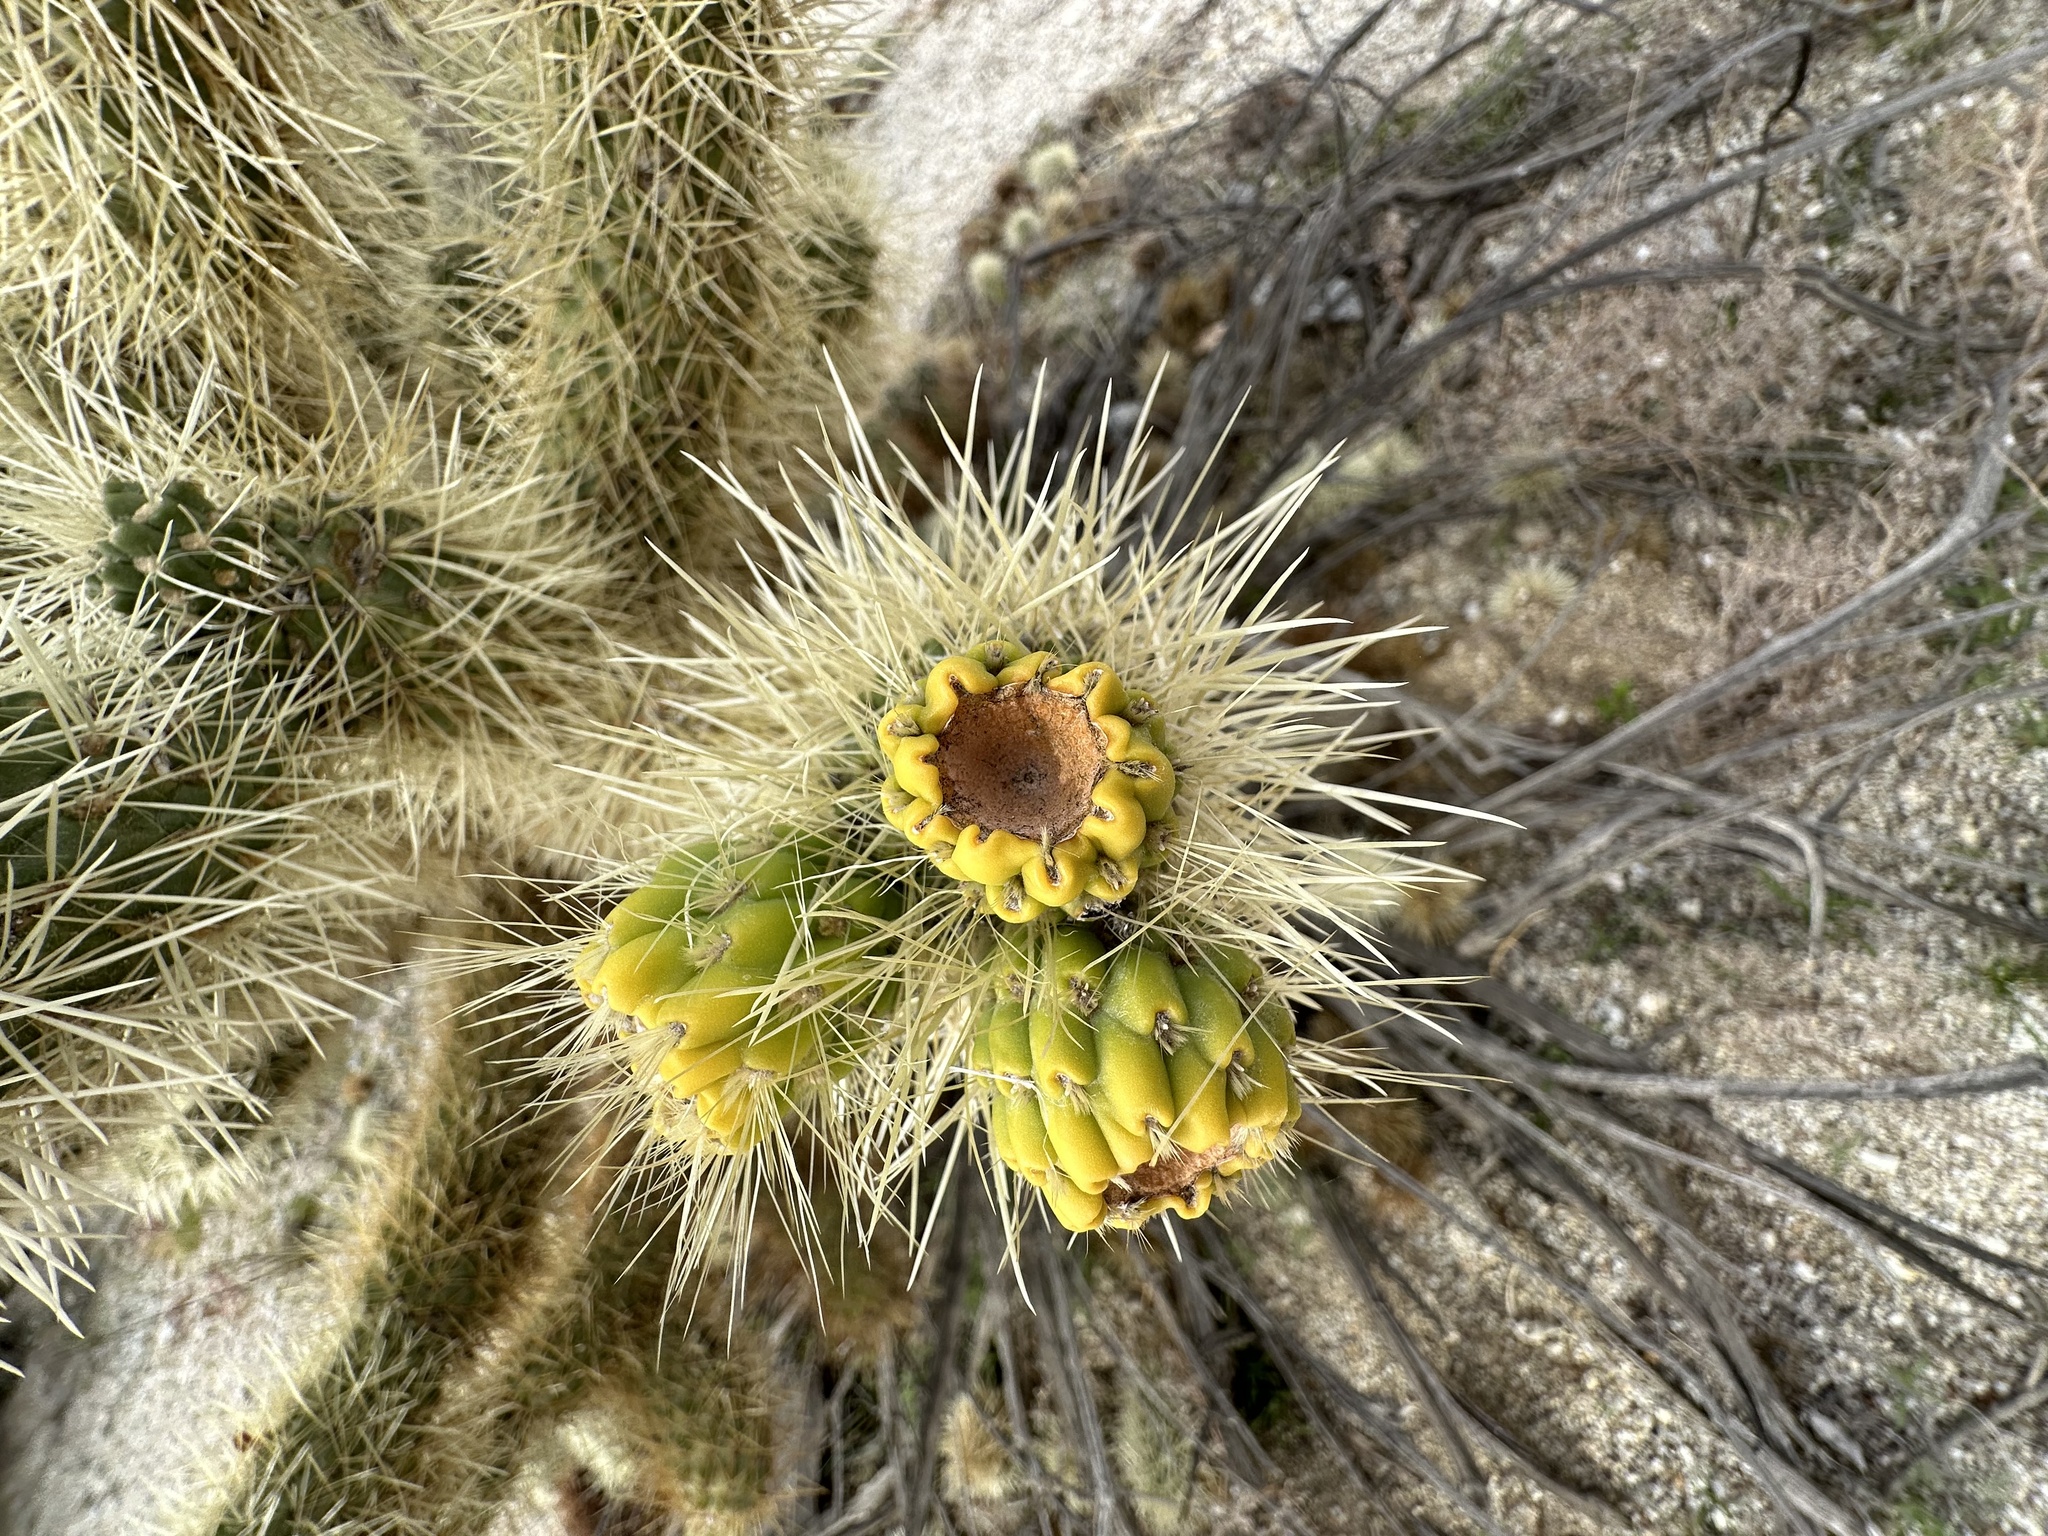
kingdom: Plantae
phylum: Tracheophyta
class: Magnoliopsida
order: Caryophyllales
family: Cactaceae
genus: Cylindropuntia
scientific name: Cylindropuntia fosbergii
